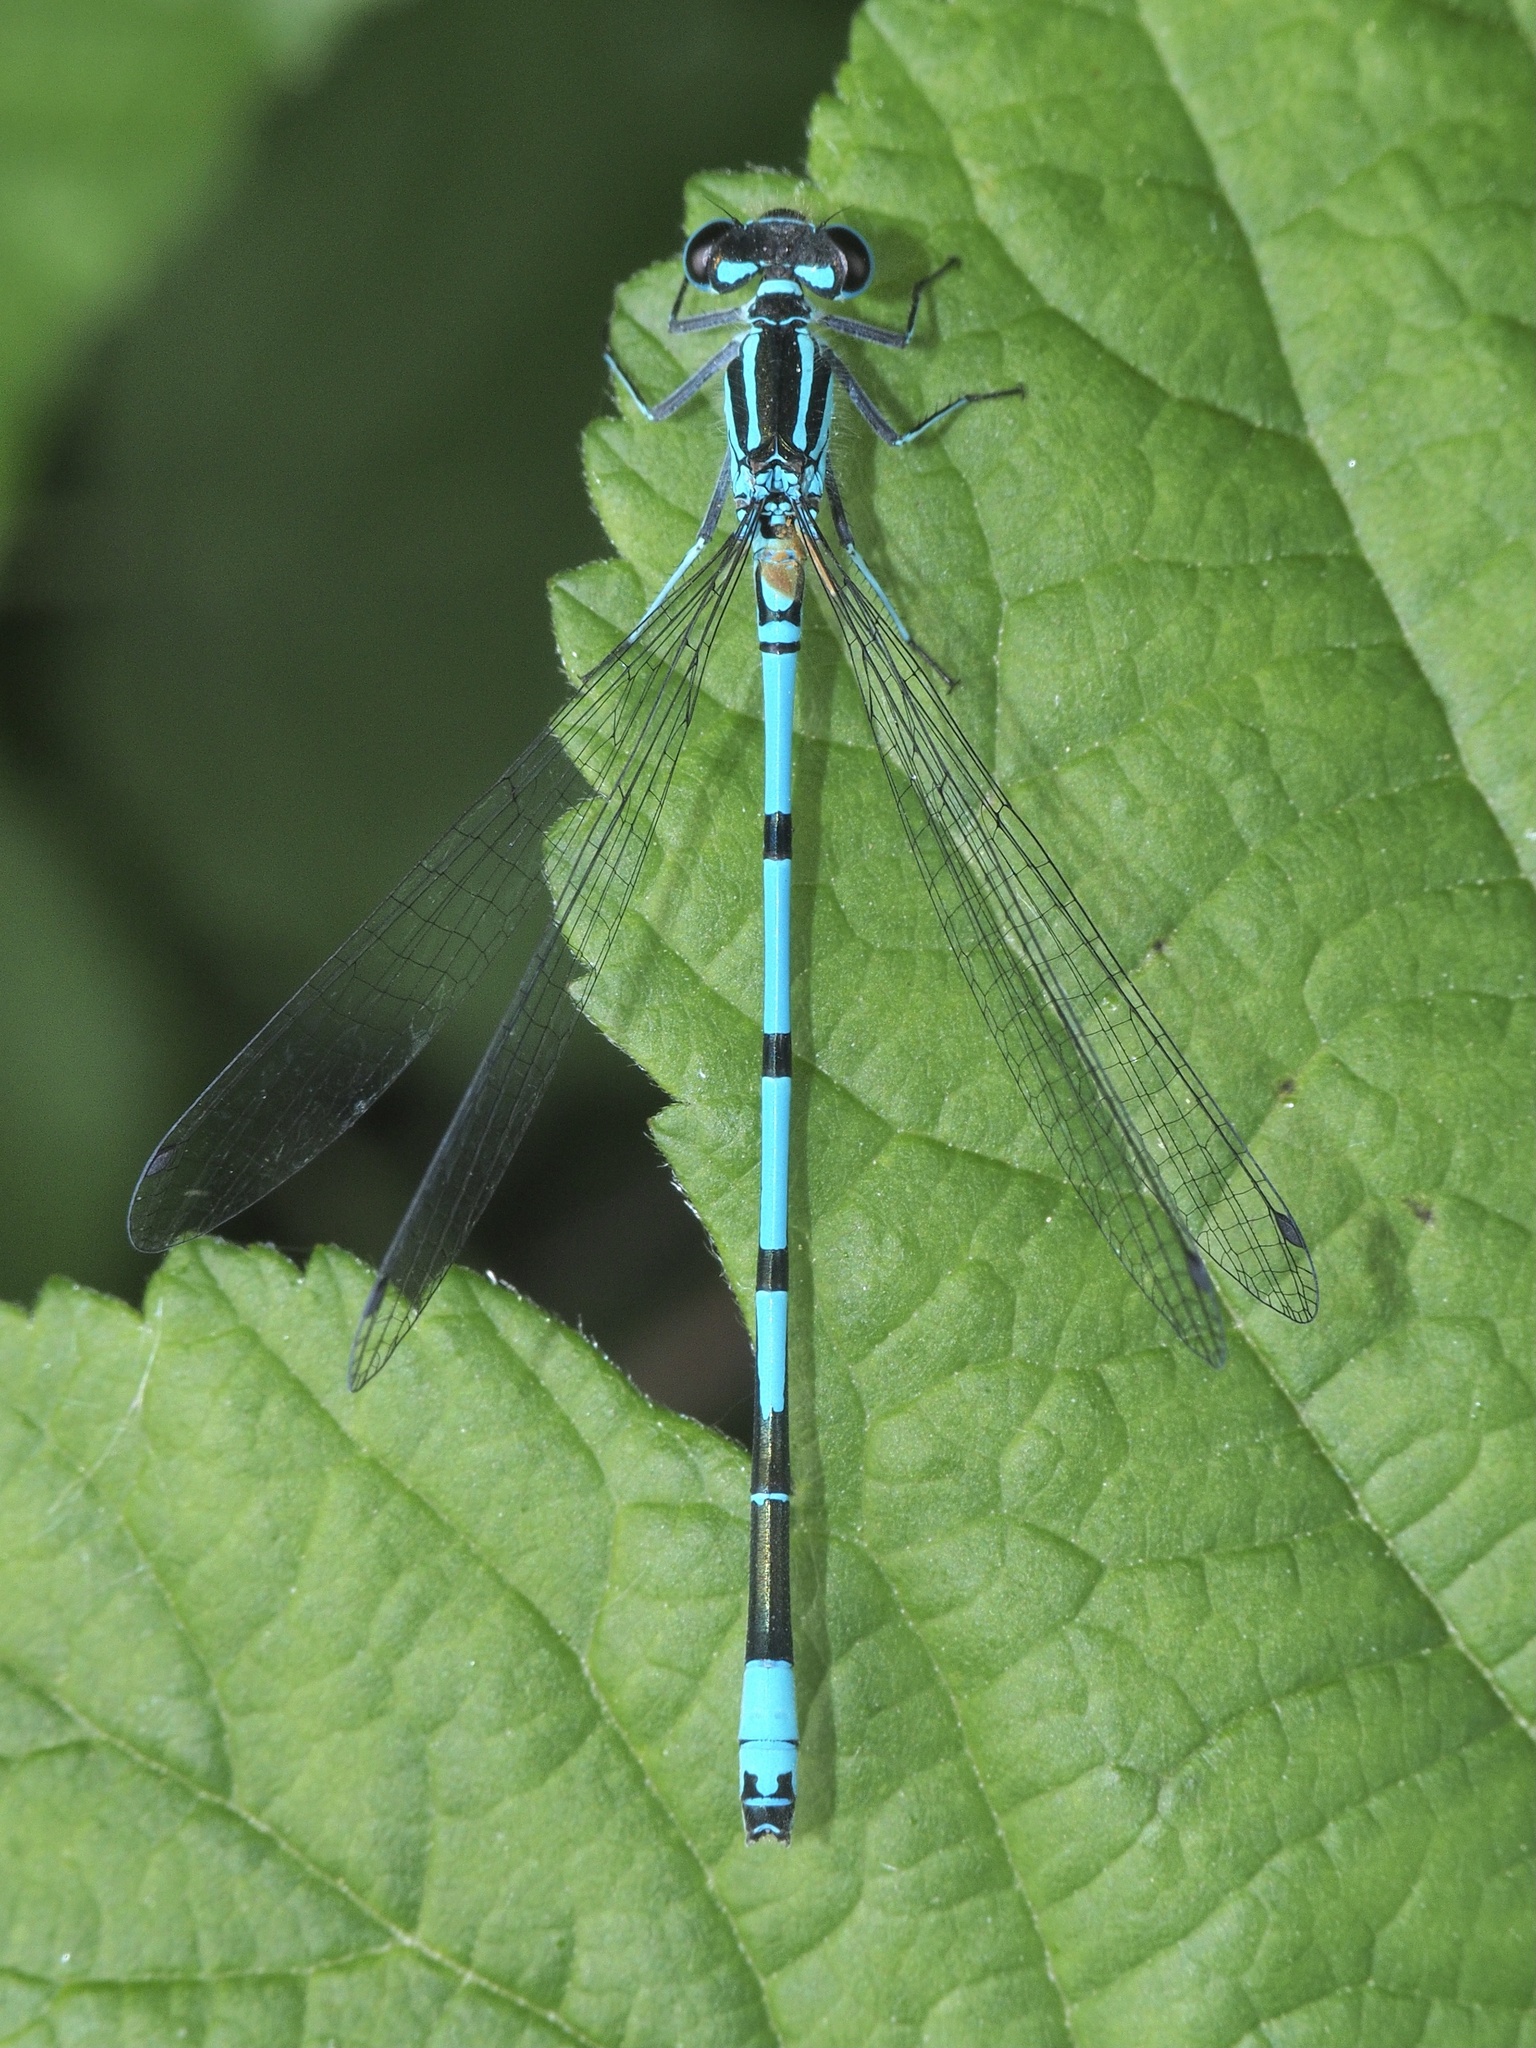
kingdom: Animalia
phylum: Arthropoda
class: Insecta
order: Odonata
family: Coenagrionidae
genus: Coenagrion
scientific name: Coenagrion puella
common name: Azure damselfly
